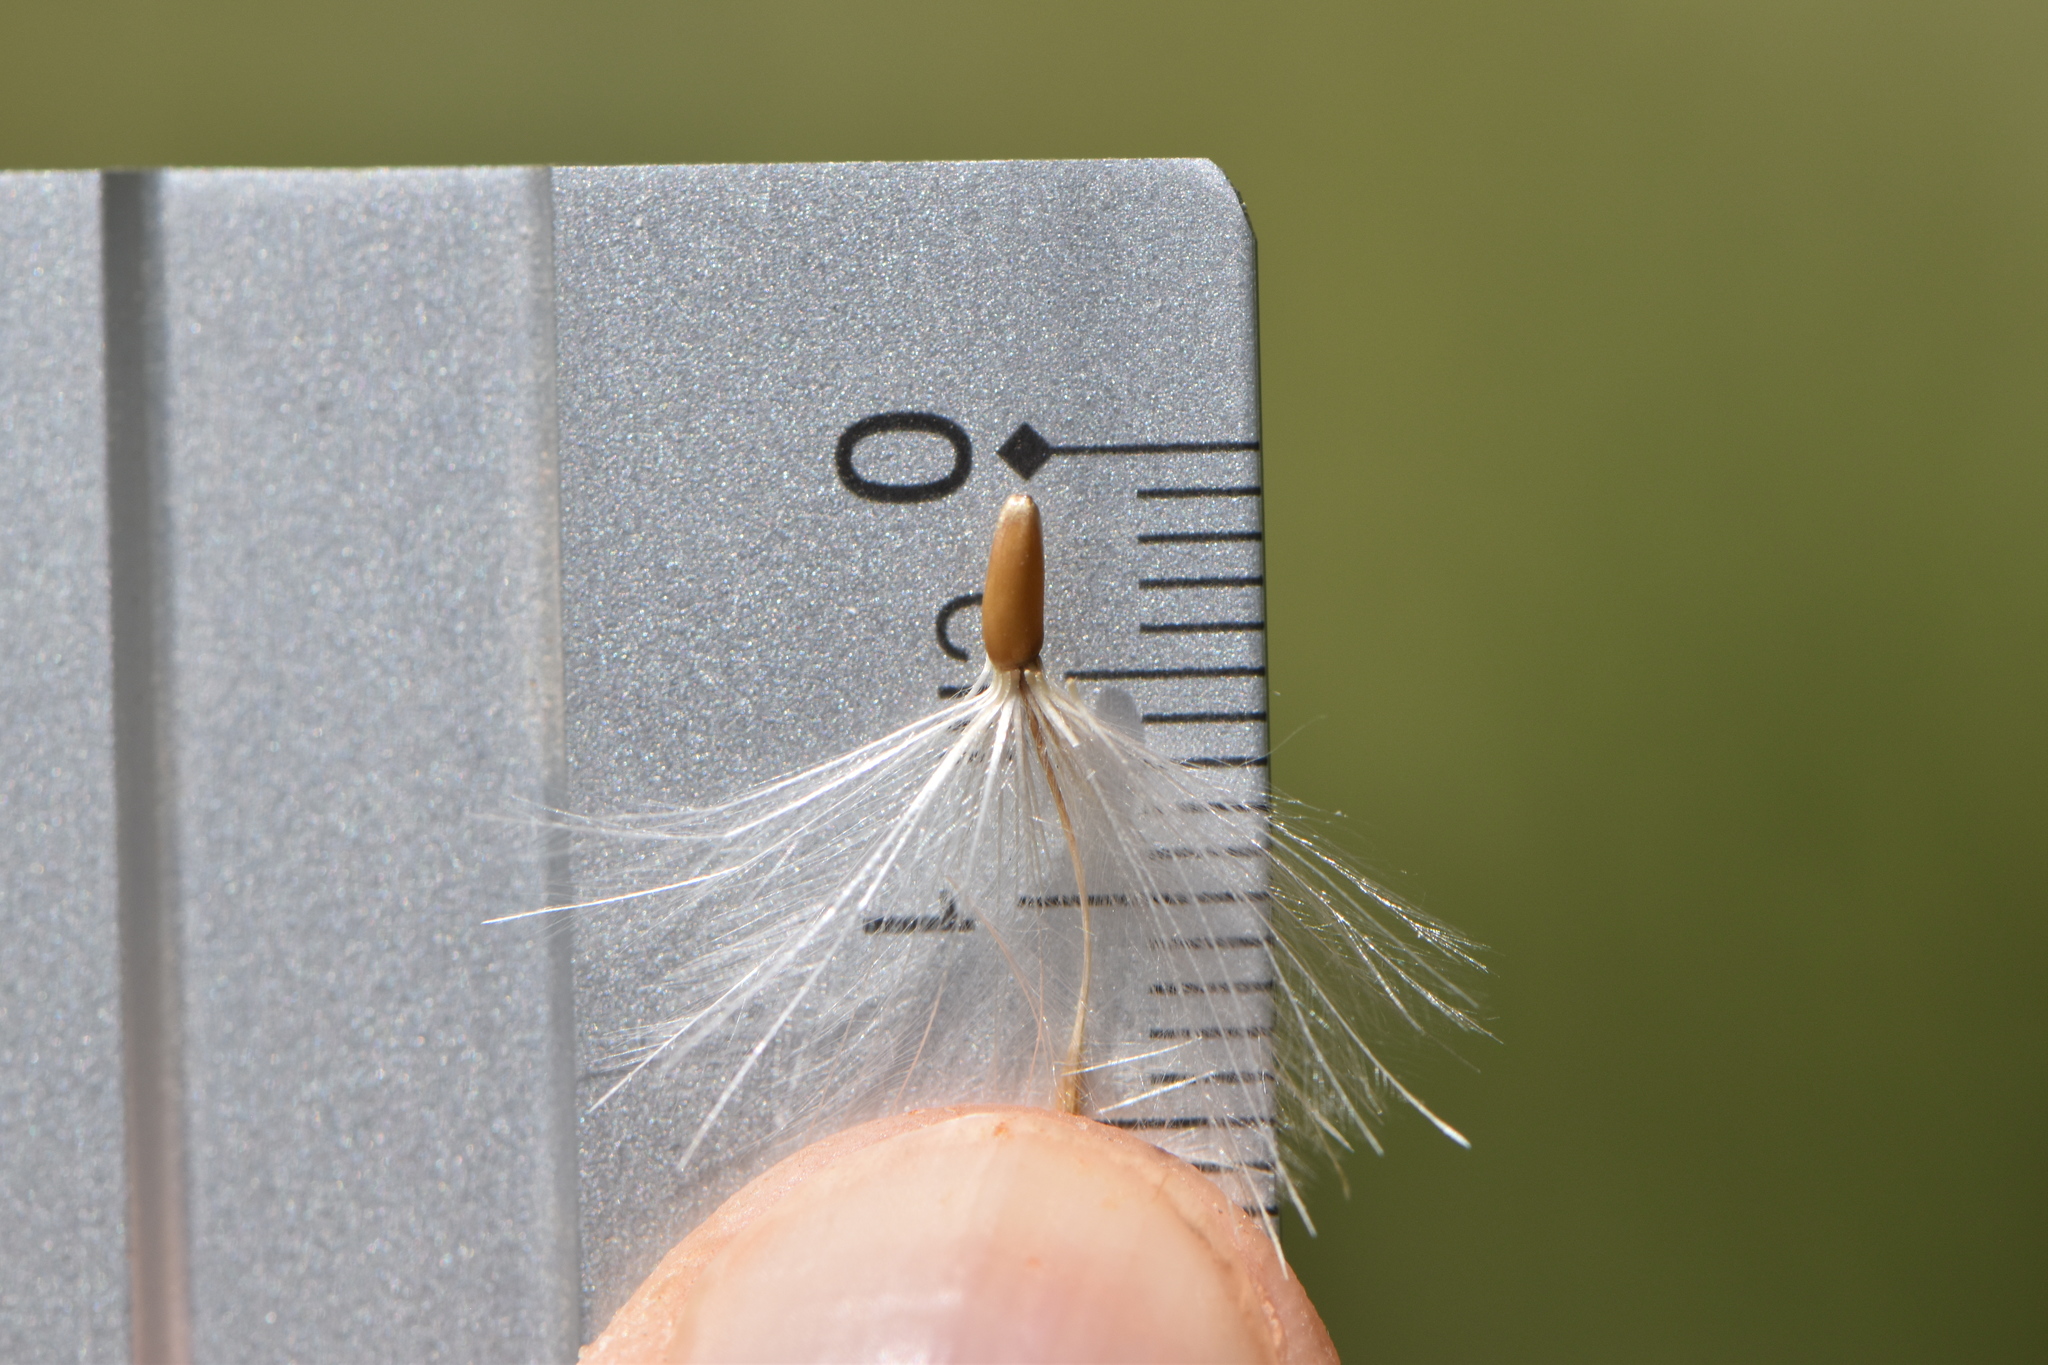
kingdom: Plantae
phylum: Tracheophyta
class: Magnoliopsida
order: Asterales
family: Asteraceae
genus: Galactites
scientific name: Galactites tomentosa
